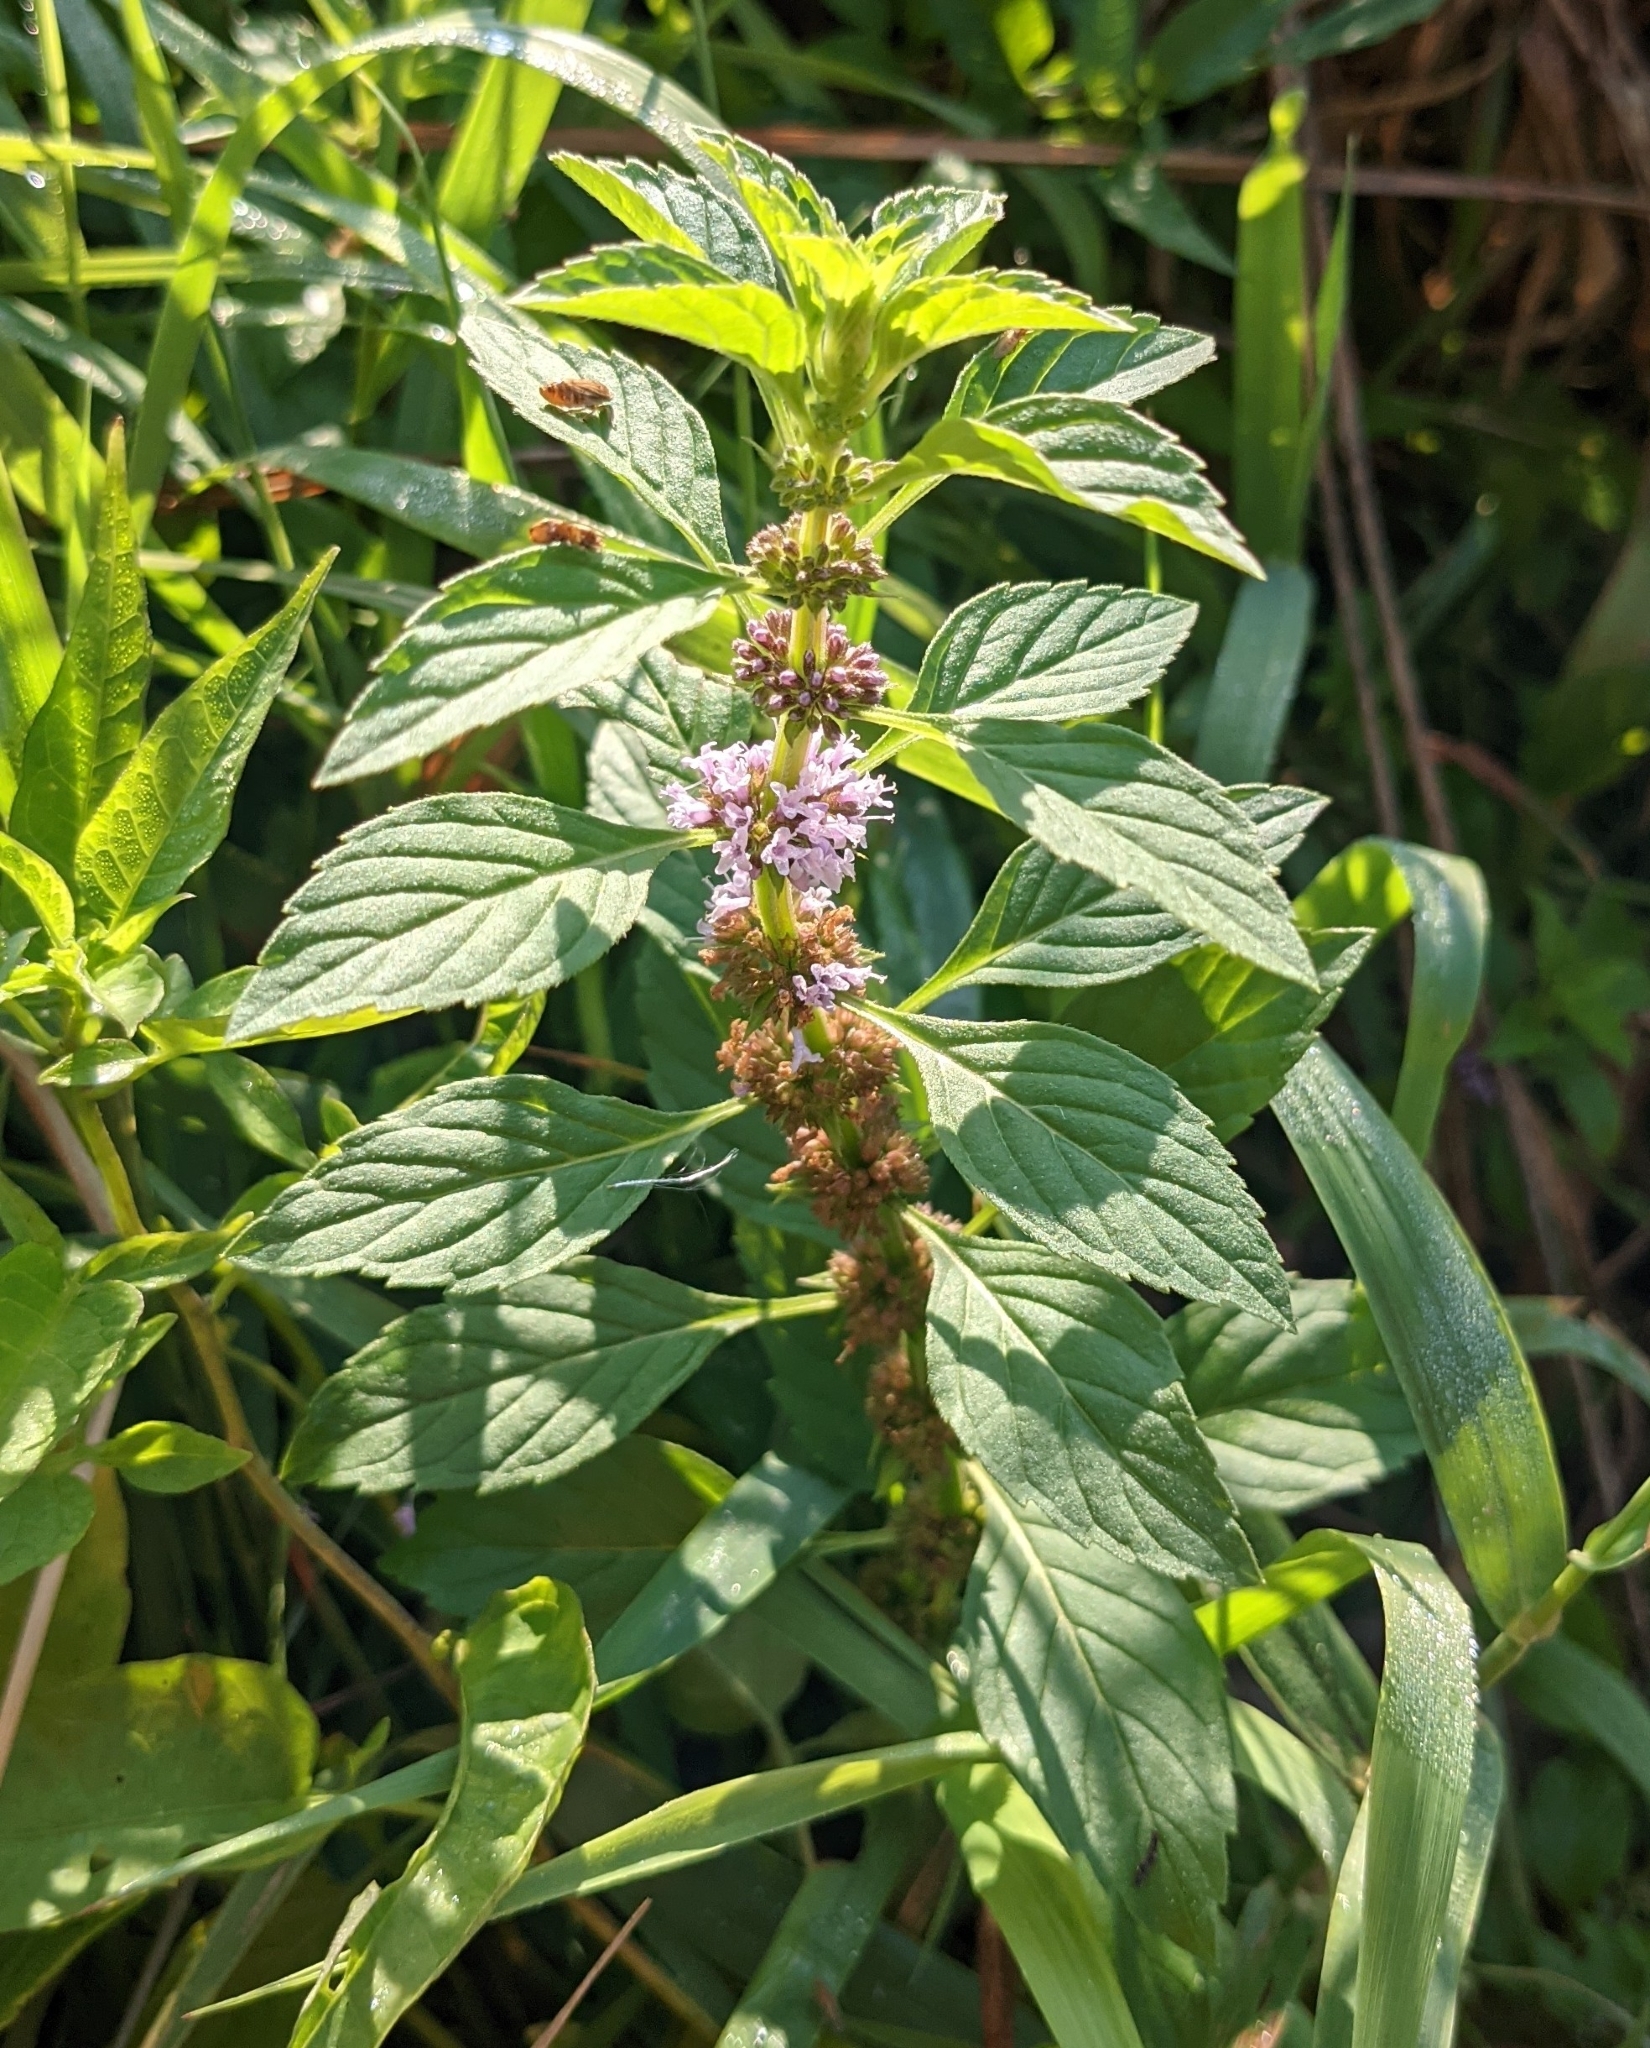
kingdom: Plantae
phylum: Tracheophyta
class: Magnoliopsida
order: Lamiales
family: Lamiaceae
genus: Mentha
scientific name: Mentha arvensis
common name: Corn mint
